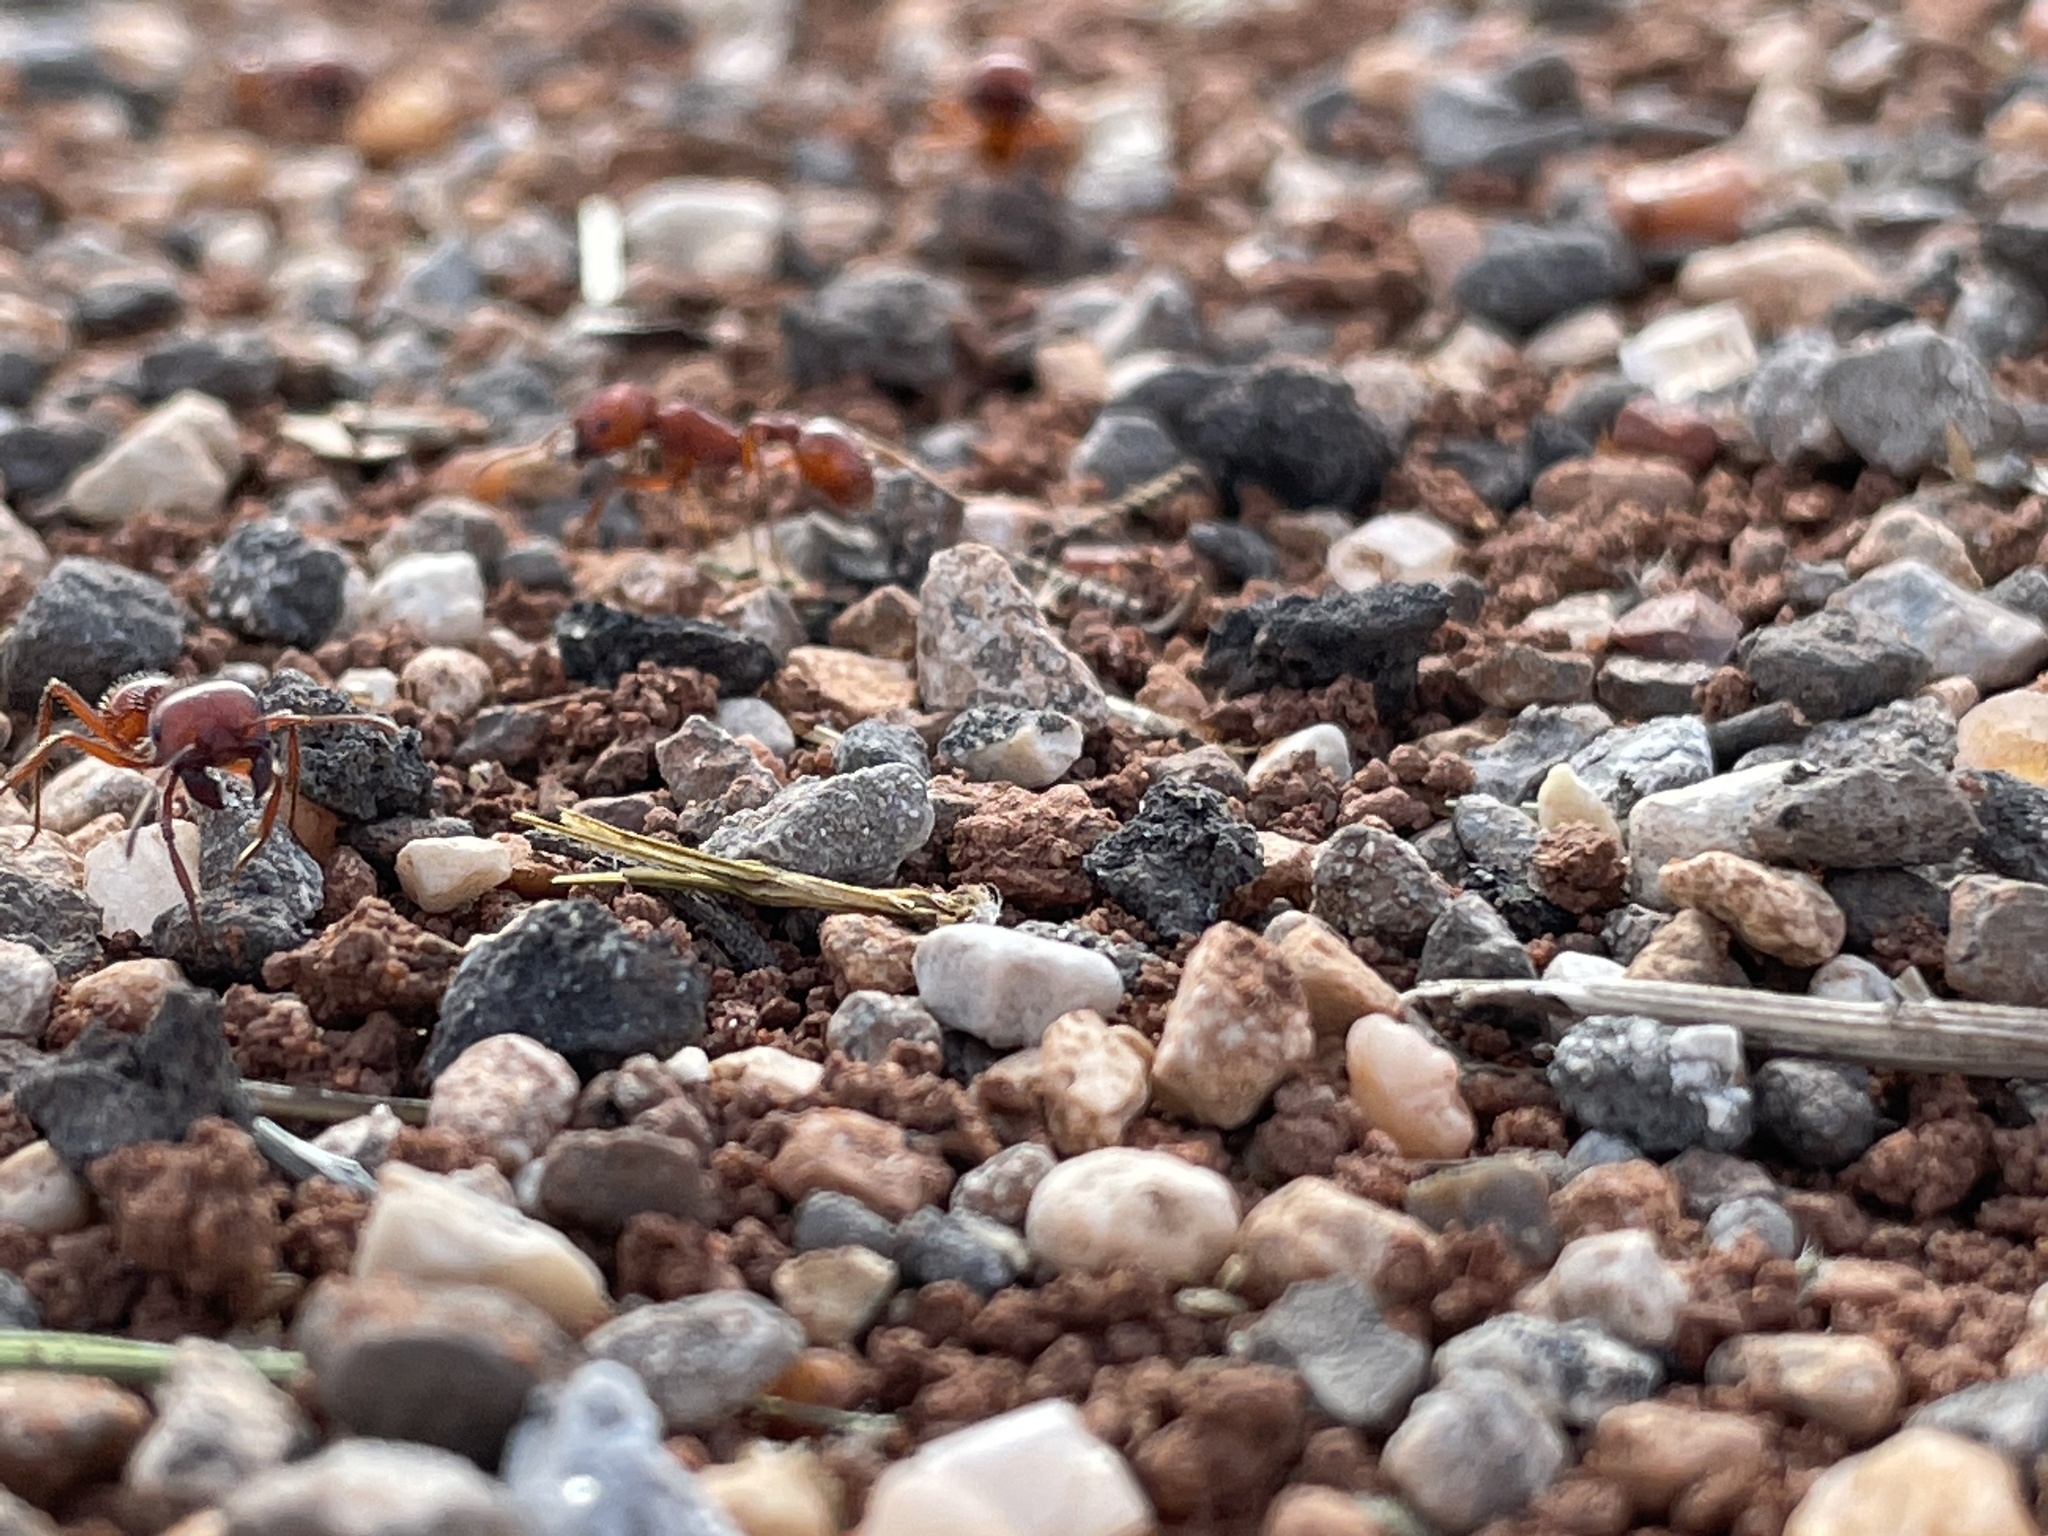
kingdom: Animalia
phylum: Arthropoda
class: Insecta
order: Hymenoptera
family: Formicidae
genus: Pogonomyrmex
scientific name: Pogonomyrmex barbatus
